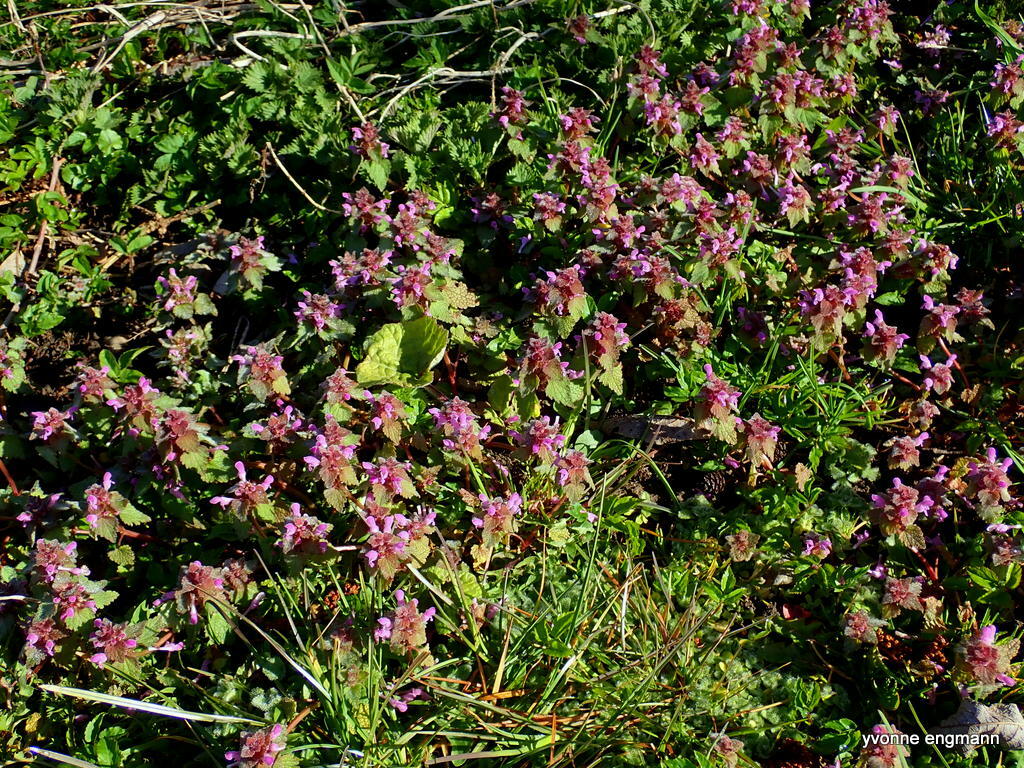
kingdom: Plantae
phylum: Tracheophyta
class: Magnoliopsida
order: Lamiales
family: Lamiaceae
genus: Lamium
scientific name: Lamium purpureum
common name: Red dead-nettle
